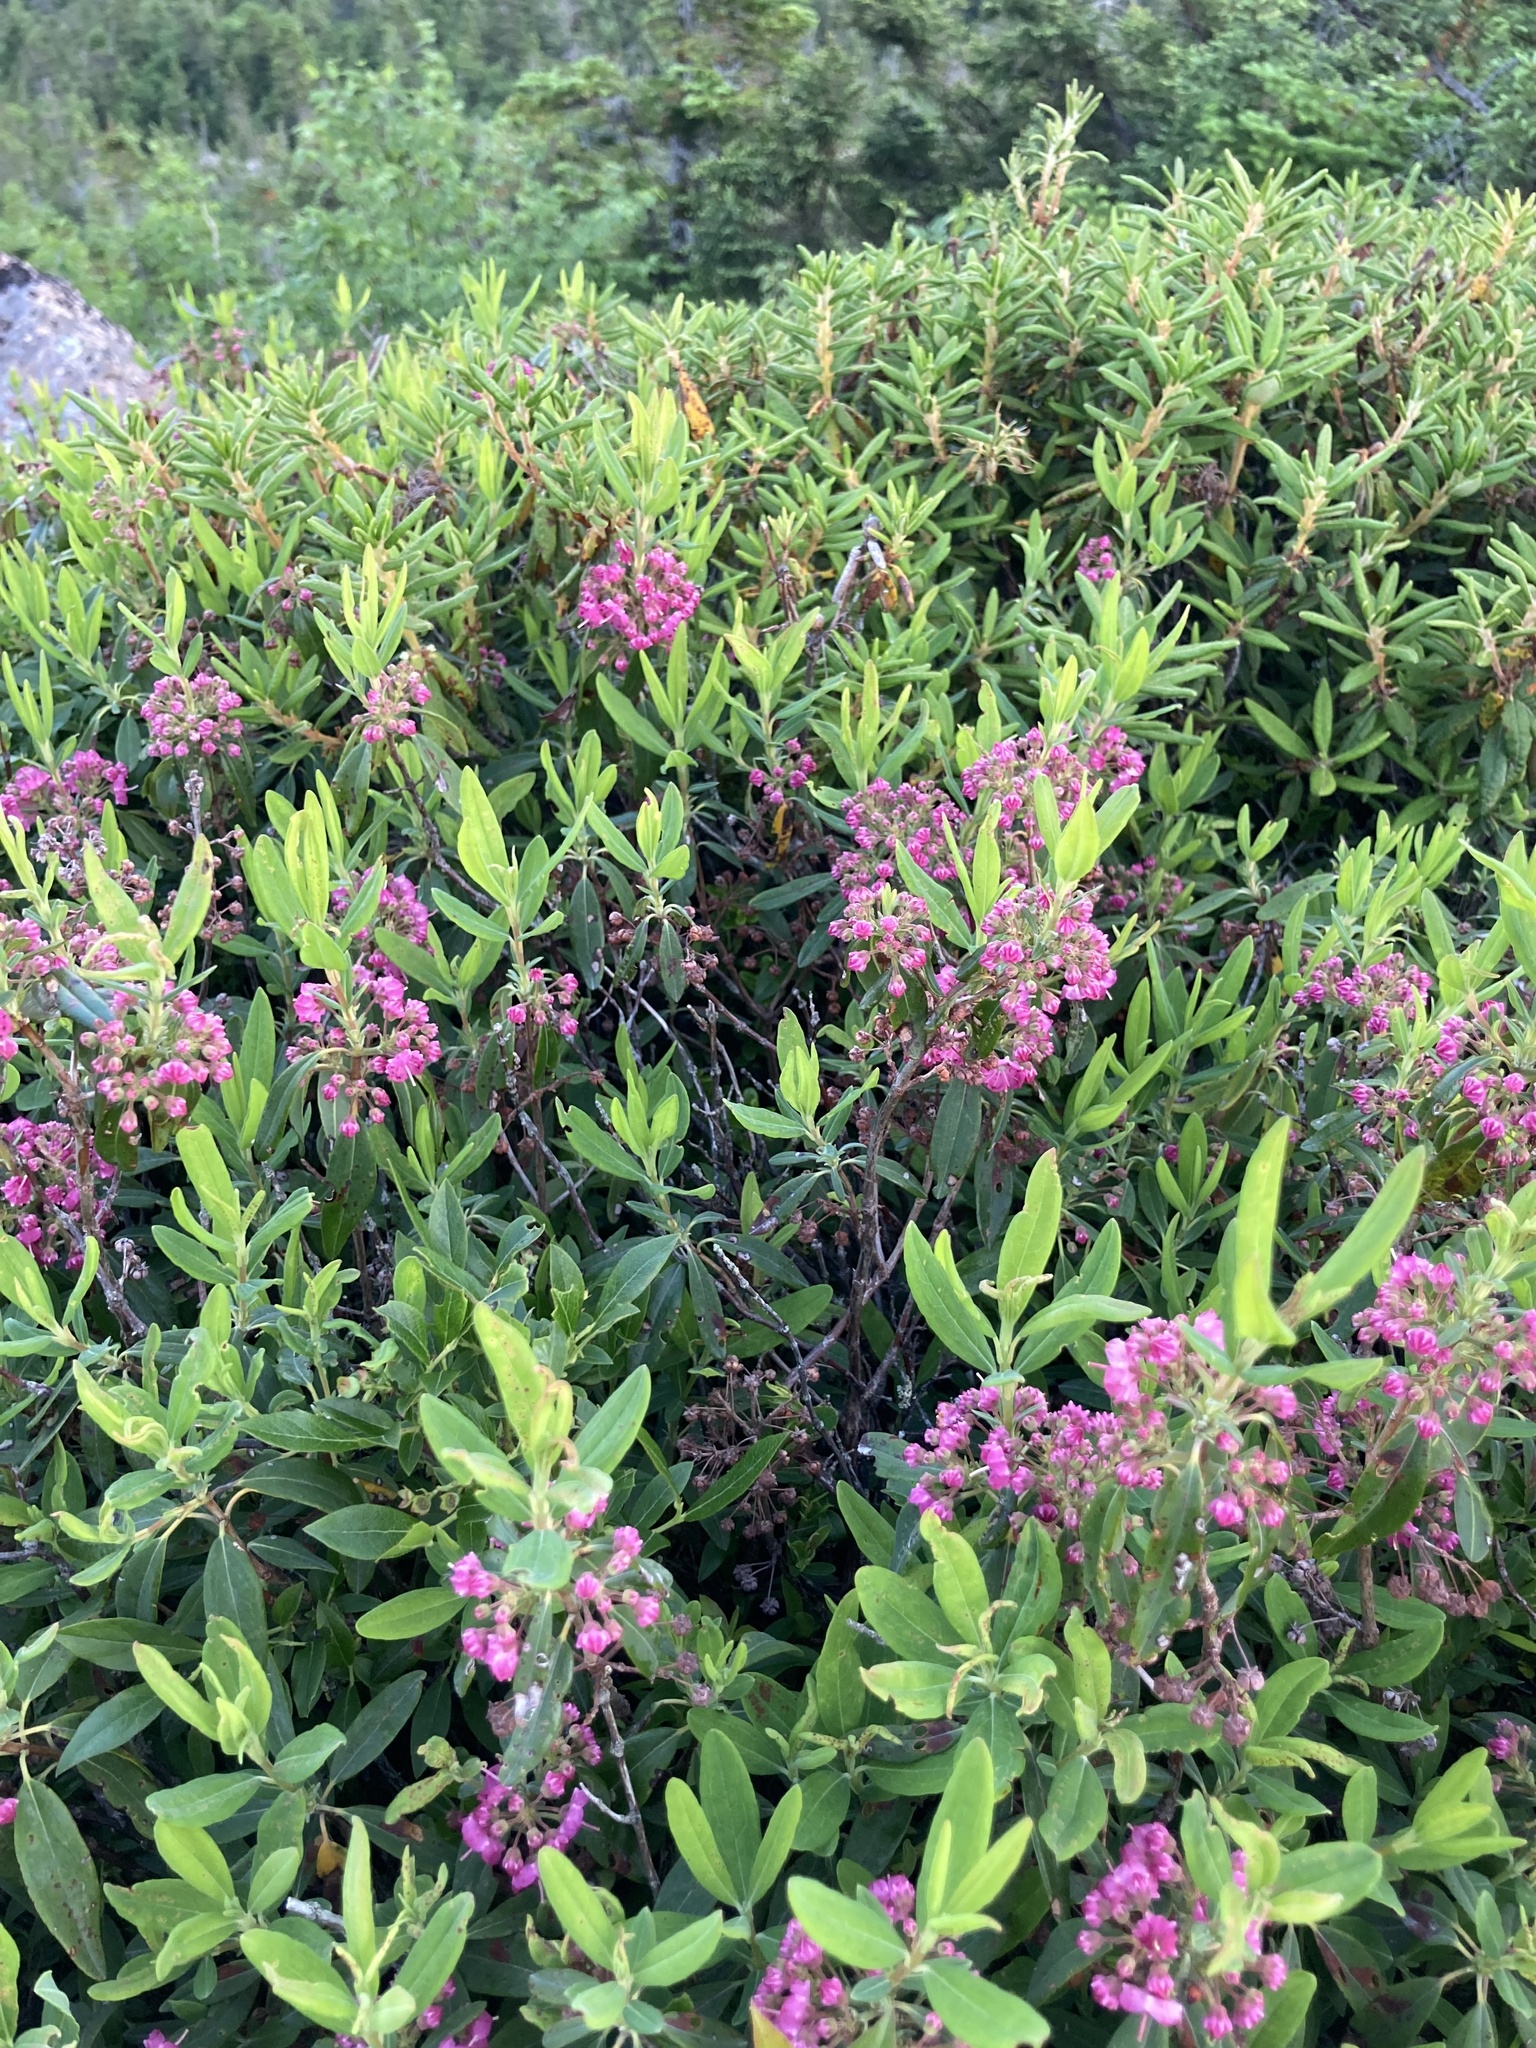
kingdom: Plantae
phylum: Tracheophyta
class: Magnoliopsida
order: Ericales
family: Ericaceae
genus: Kalmia
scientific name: Kalmia angustifolia
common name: Sheep-laurel
